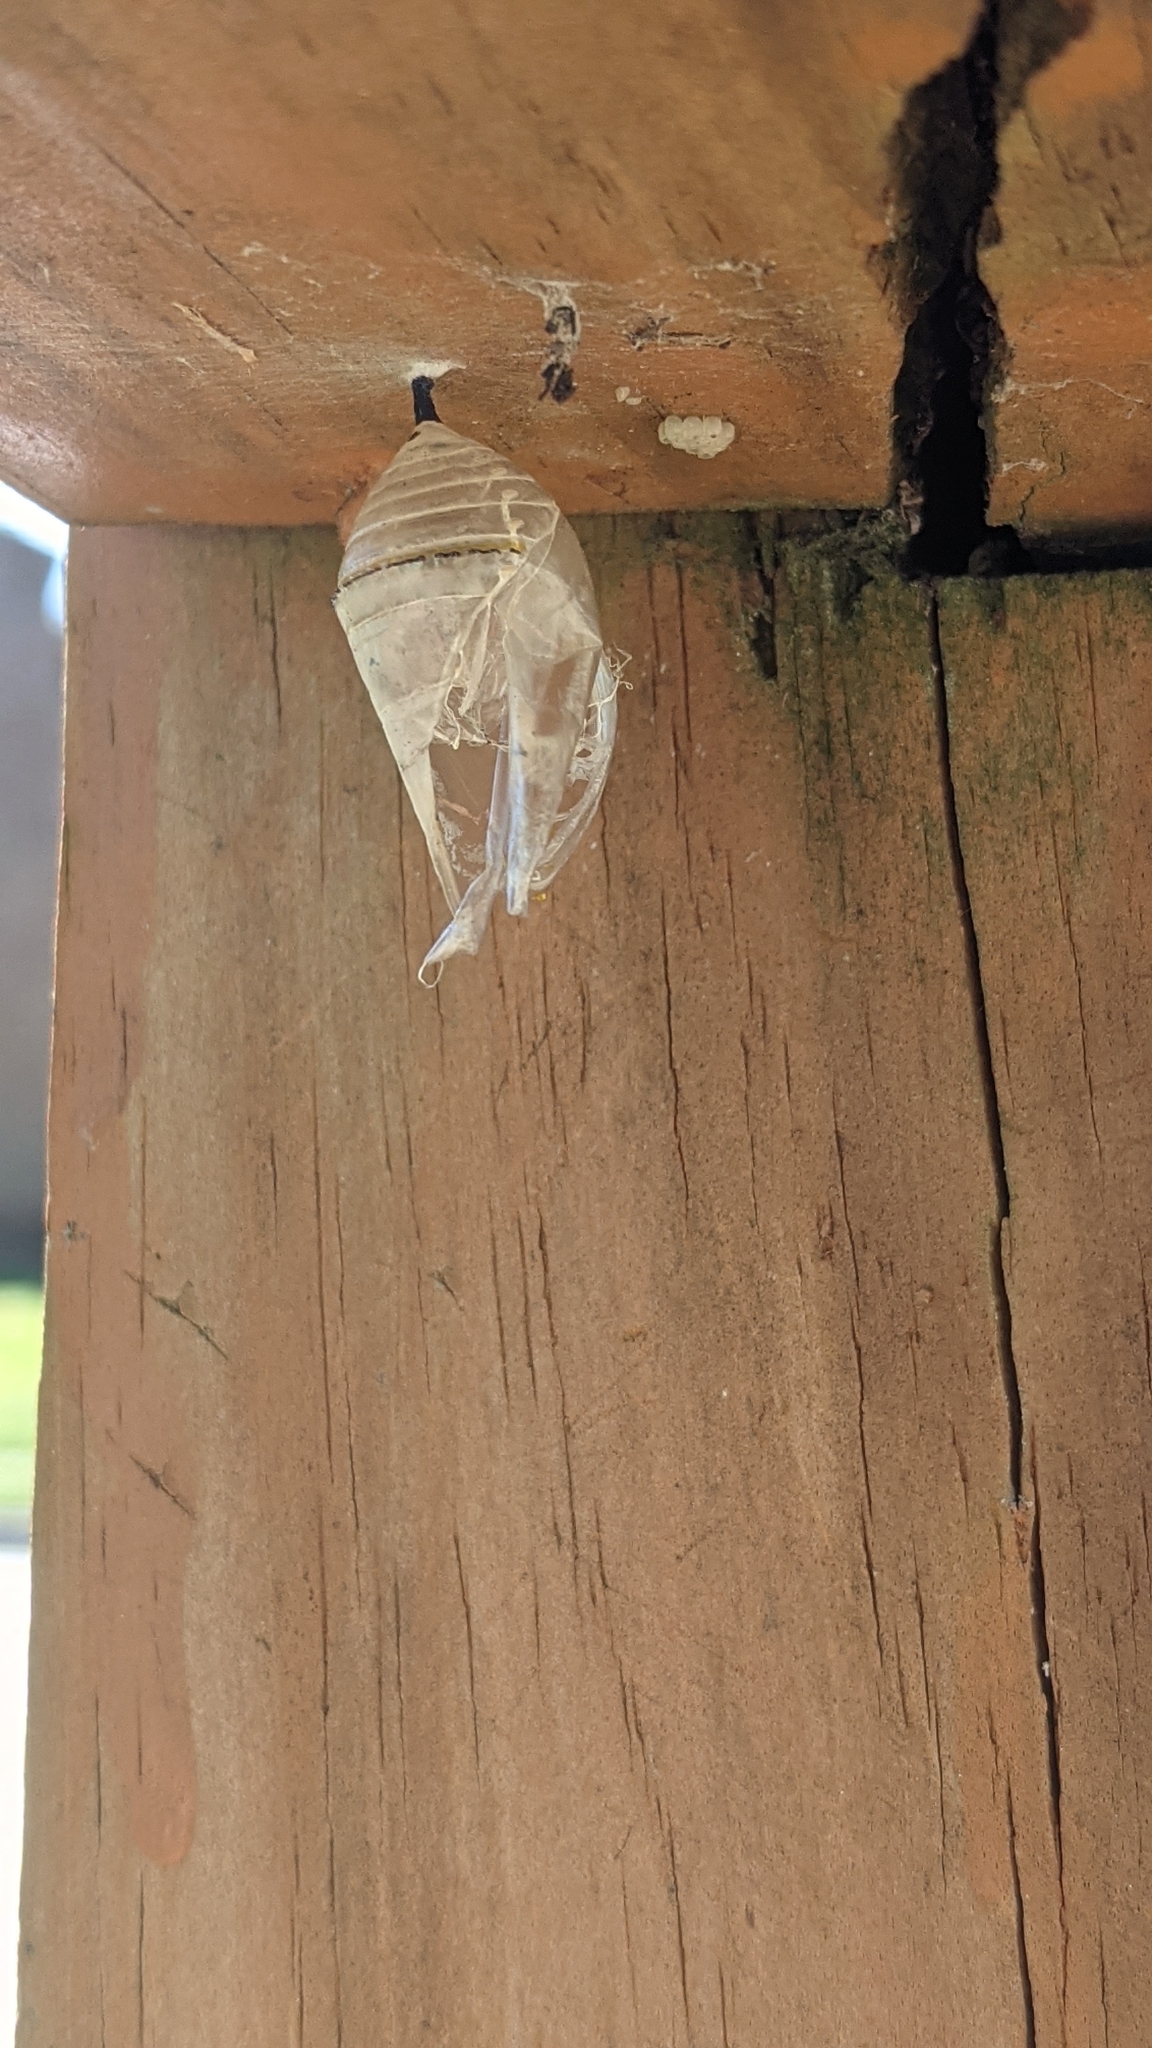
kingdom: Animalia
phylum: Arthropoda
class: Insecta
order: Lepidoptera
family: Nymphalidae
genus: Danaus
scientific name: Danaus plexippus
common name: Monarch
